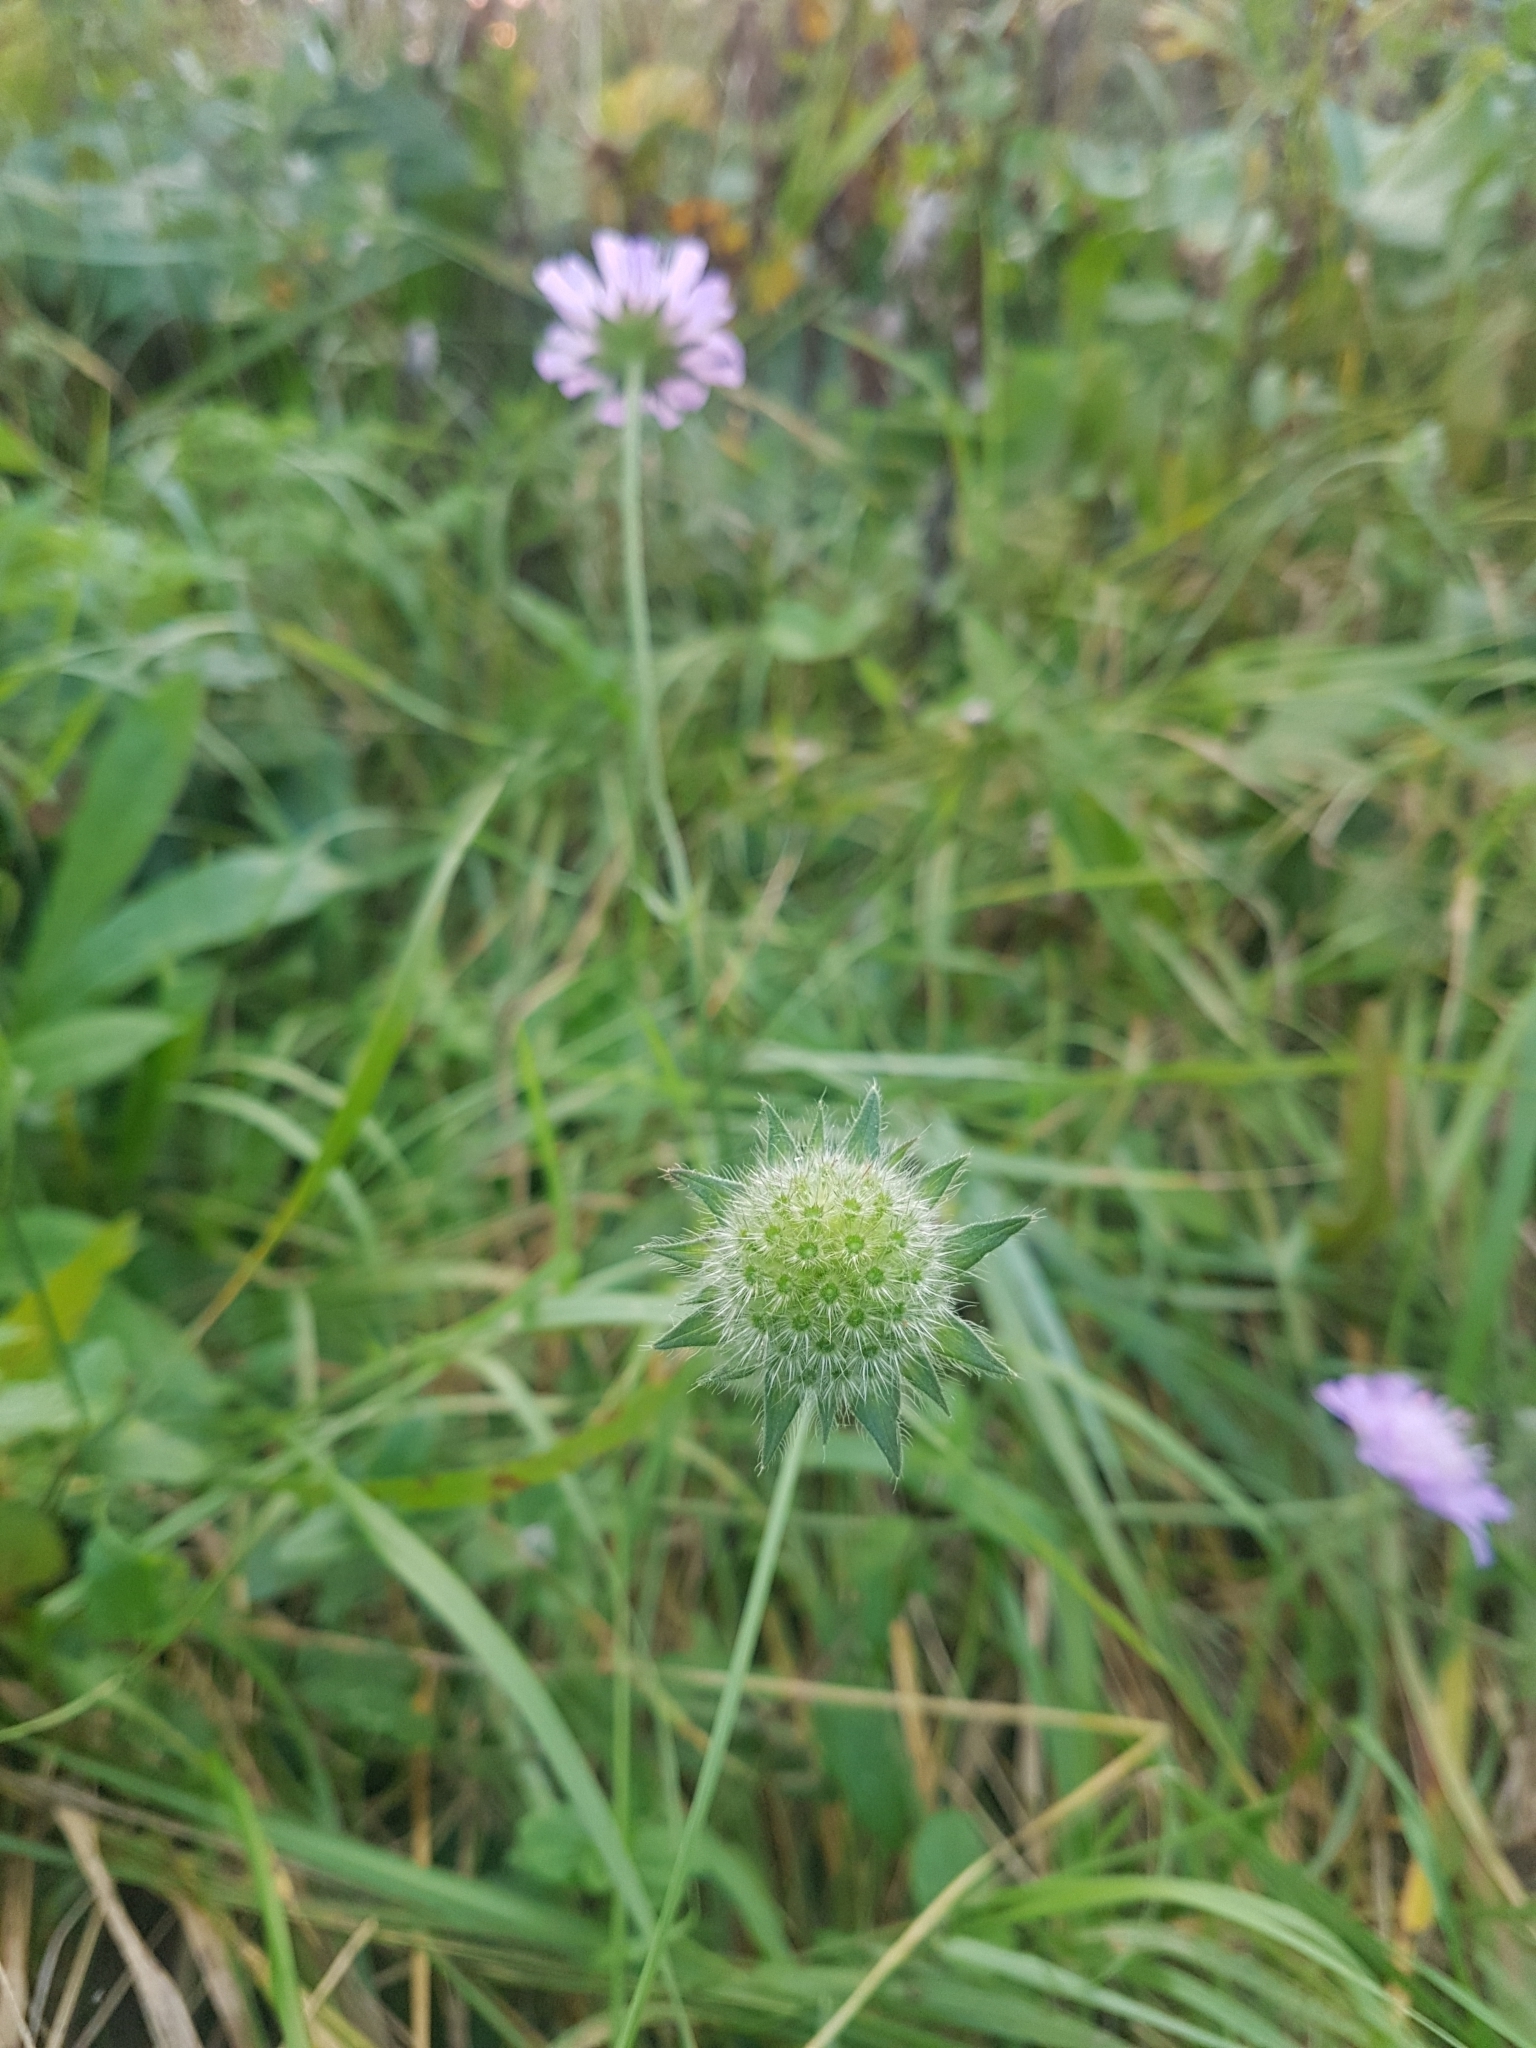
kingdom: Plantae
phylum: Tracheophyta
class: Magnoliopsida
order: Dipsacales
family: Caprifoliaceae
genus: Knautia
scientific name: Knautia arvensis
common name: Field scabiosa
